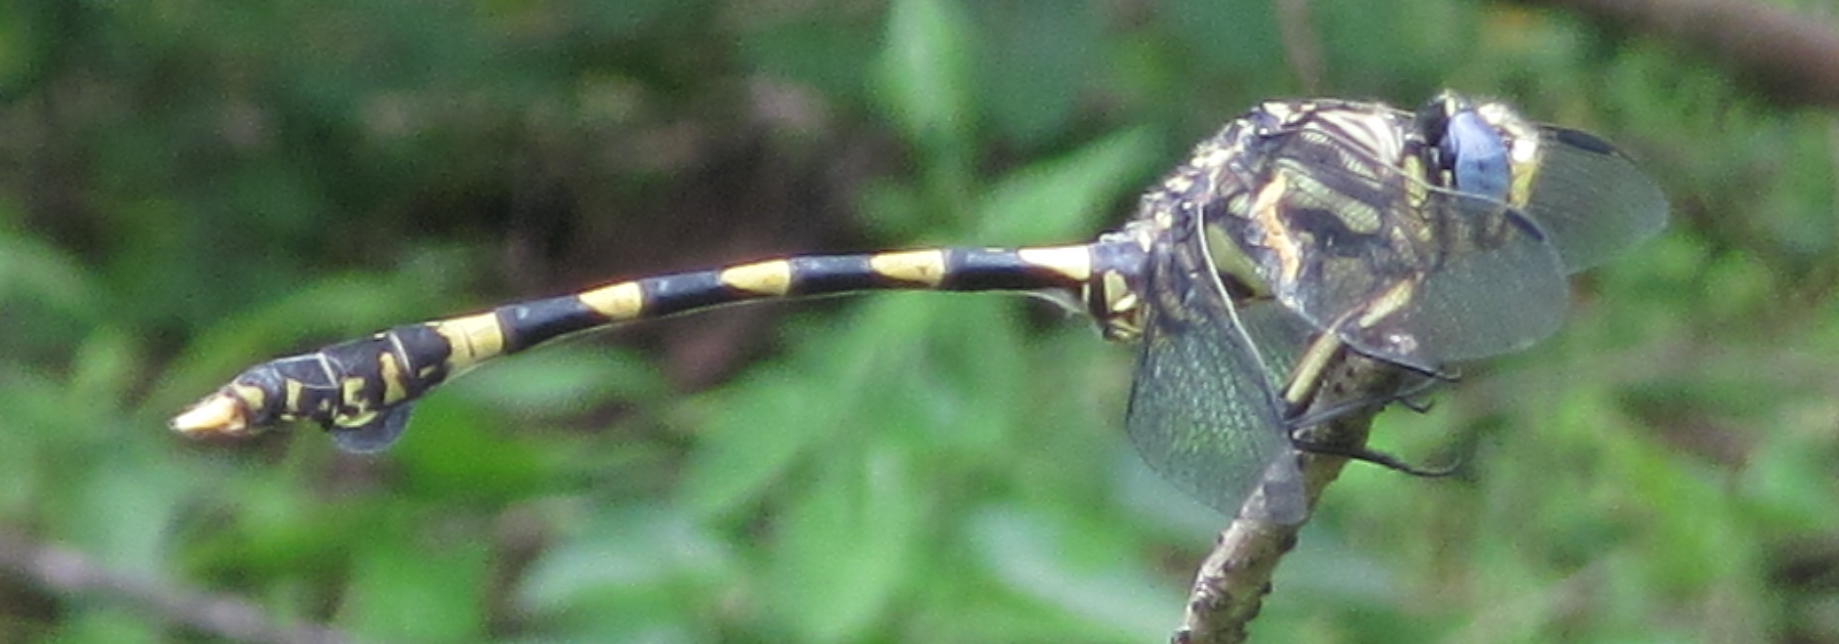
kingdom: Animalia
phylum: Arthropoda
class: Insecta
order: Odonata
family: Gomphidae
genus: Ictinogomphus
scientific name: Ictinogomphus ferox
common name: Common tiger
